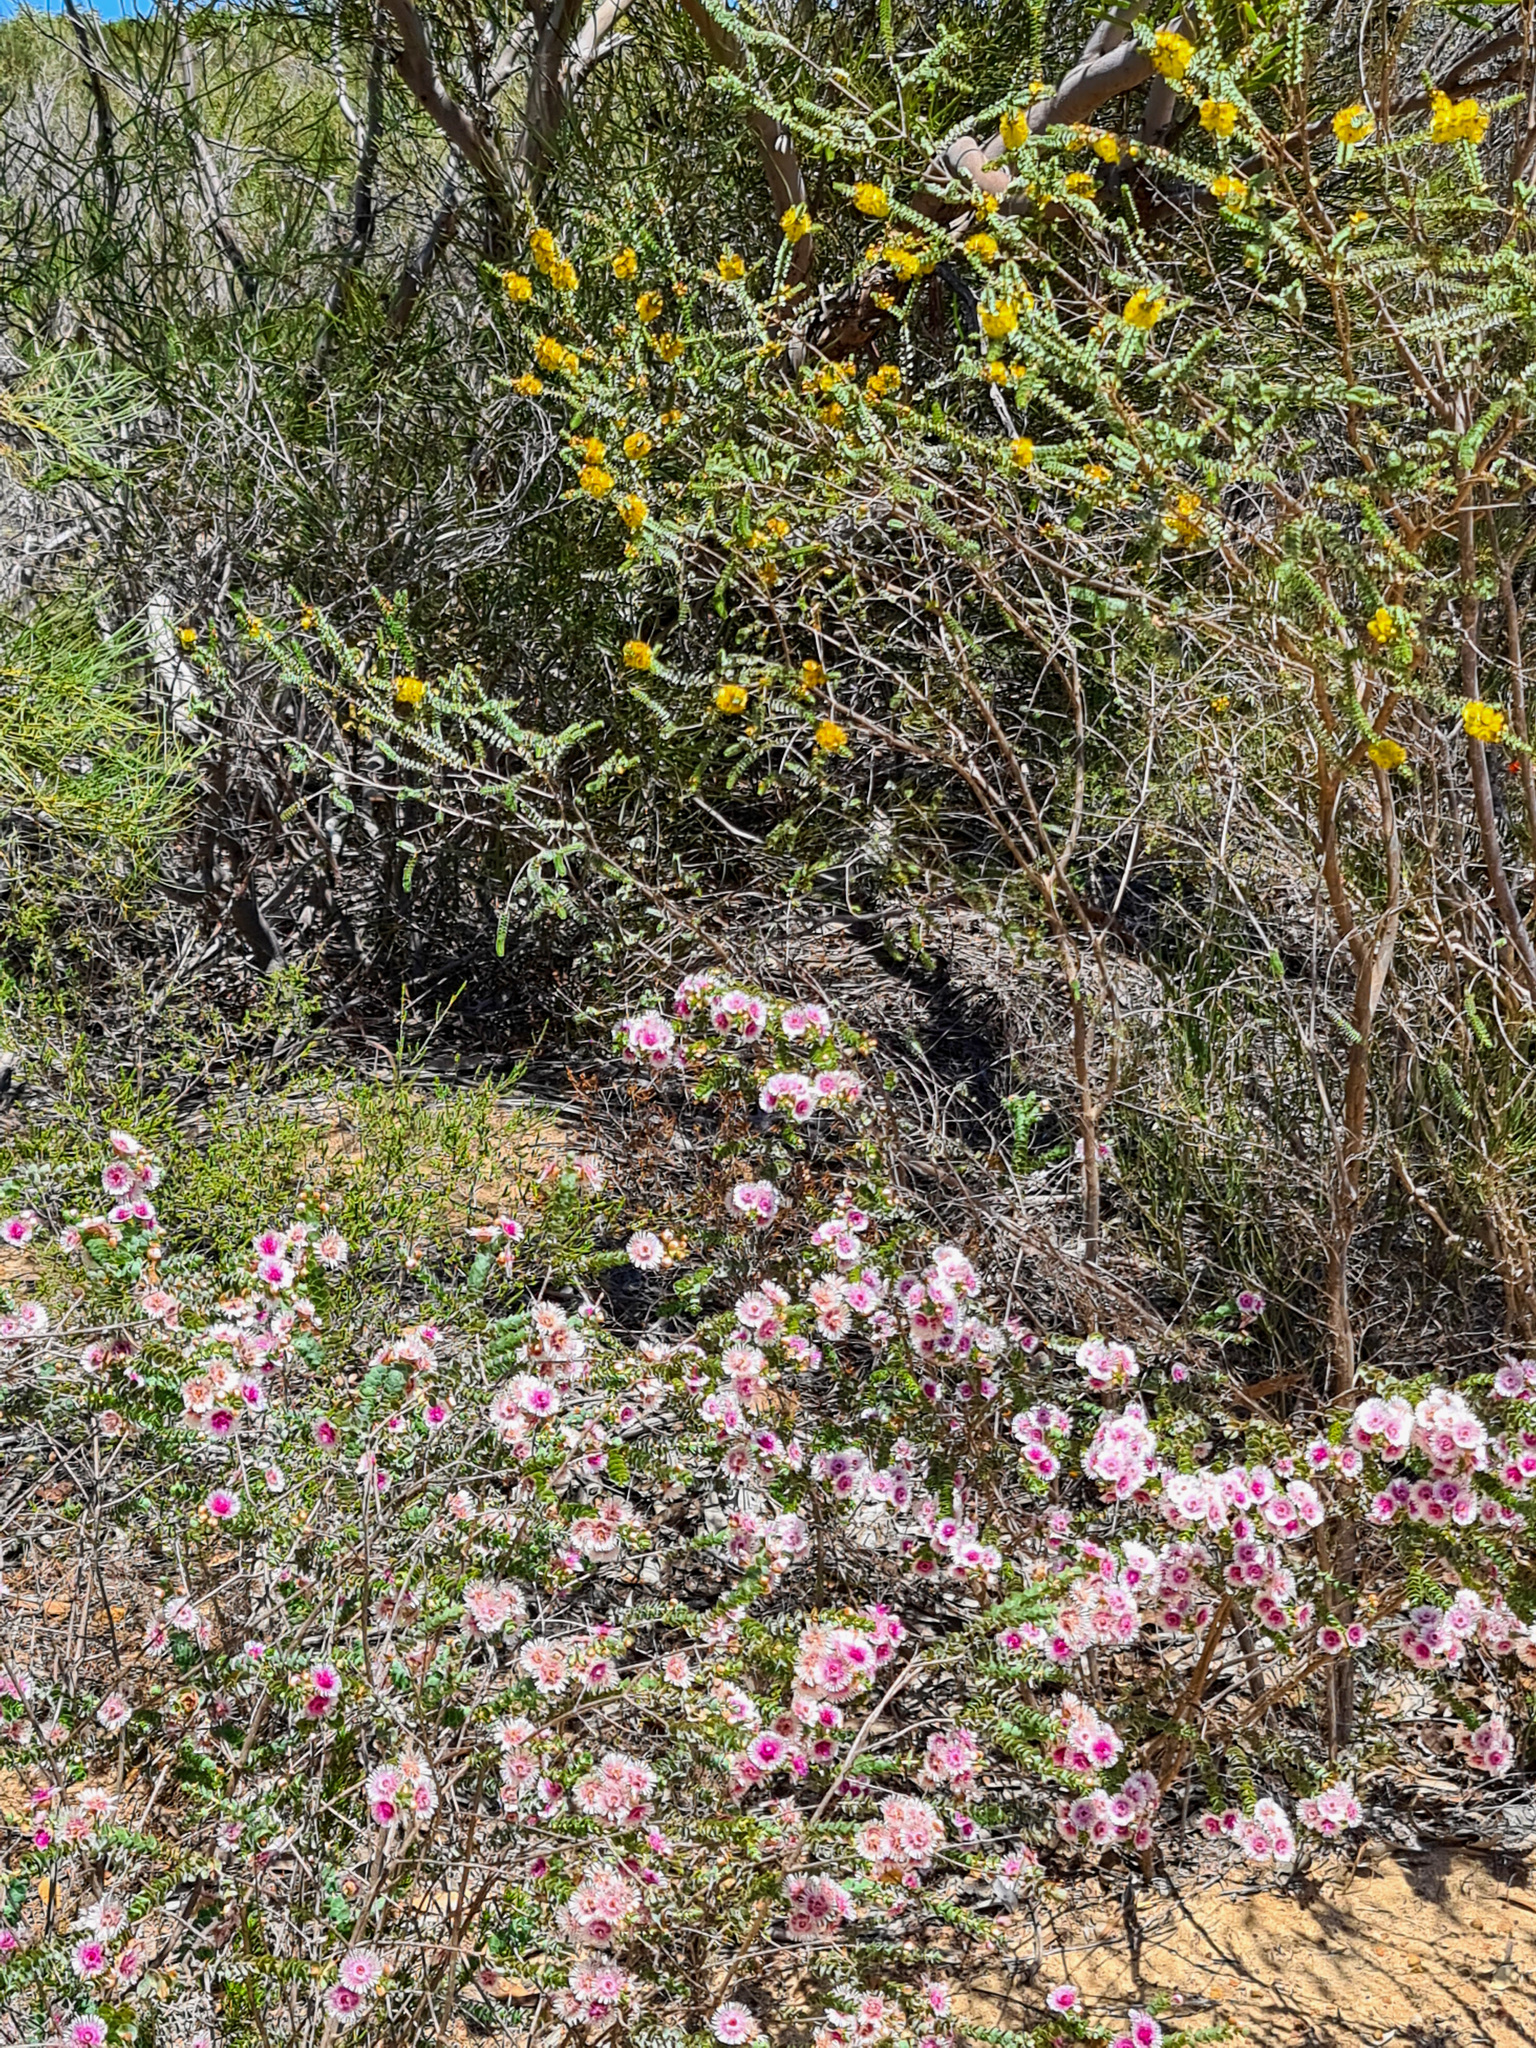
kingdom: Plantae
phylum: Tracheophyta
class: Magnoliopsida
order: Myrtales
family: Myrtaceae
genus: Verticordia
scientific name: Verticordia chrysostachys
